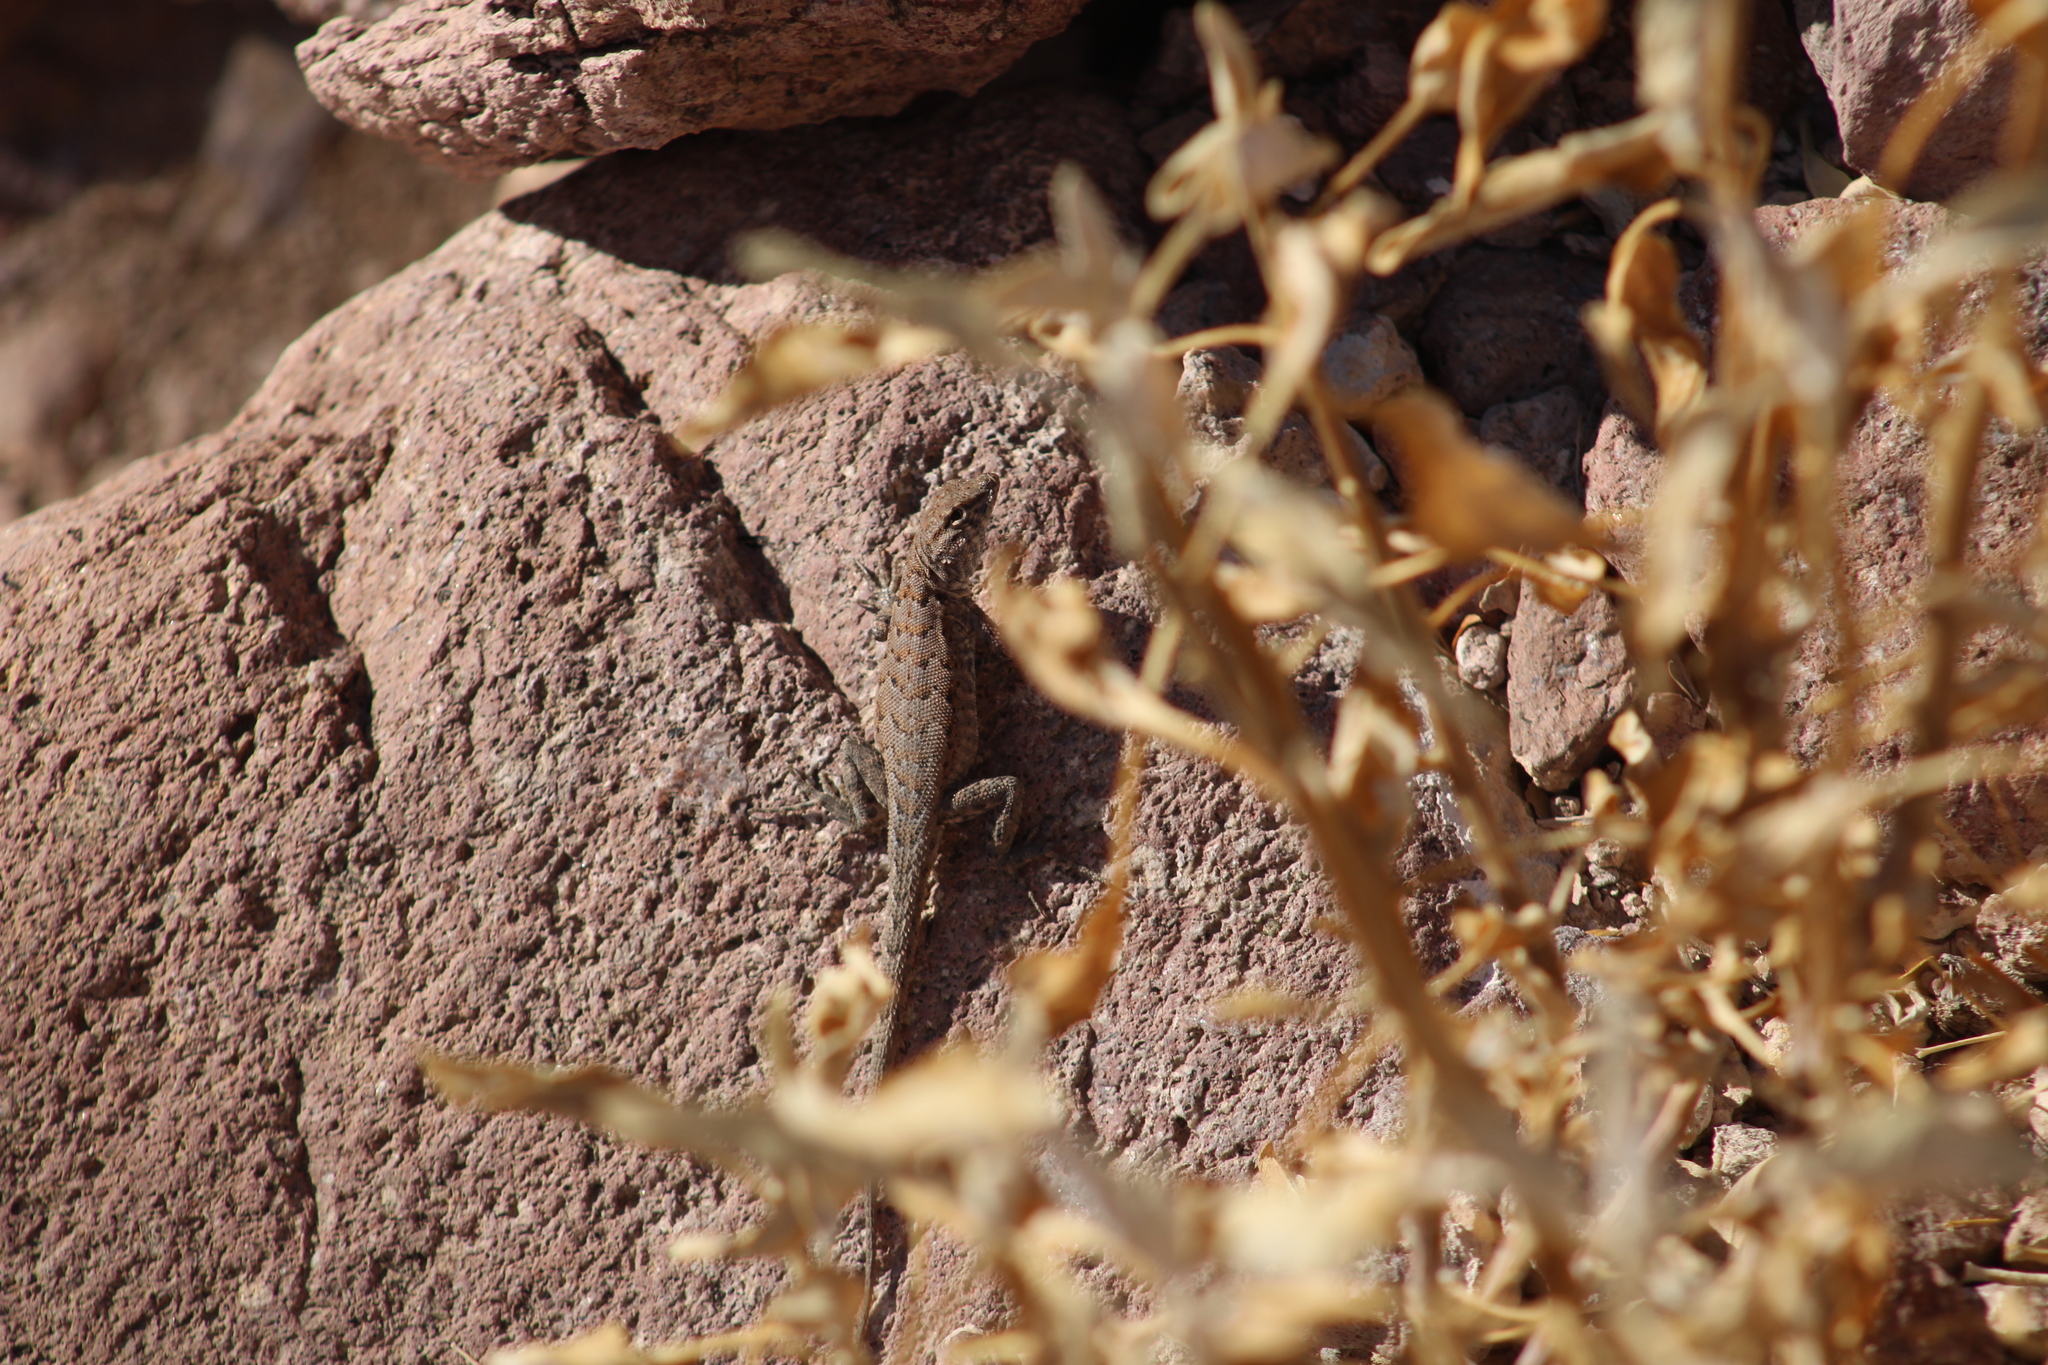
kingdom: Animalia
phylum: Chordata
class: Squamata
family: Phrynosomatidae
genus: Uta
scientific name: Uta stansburiana
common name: Side-blotched lizard
